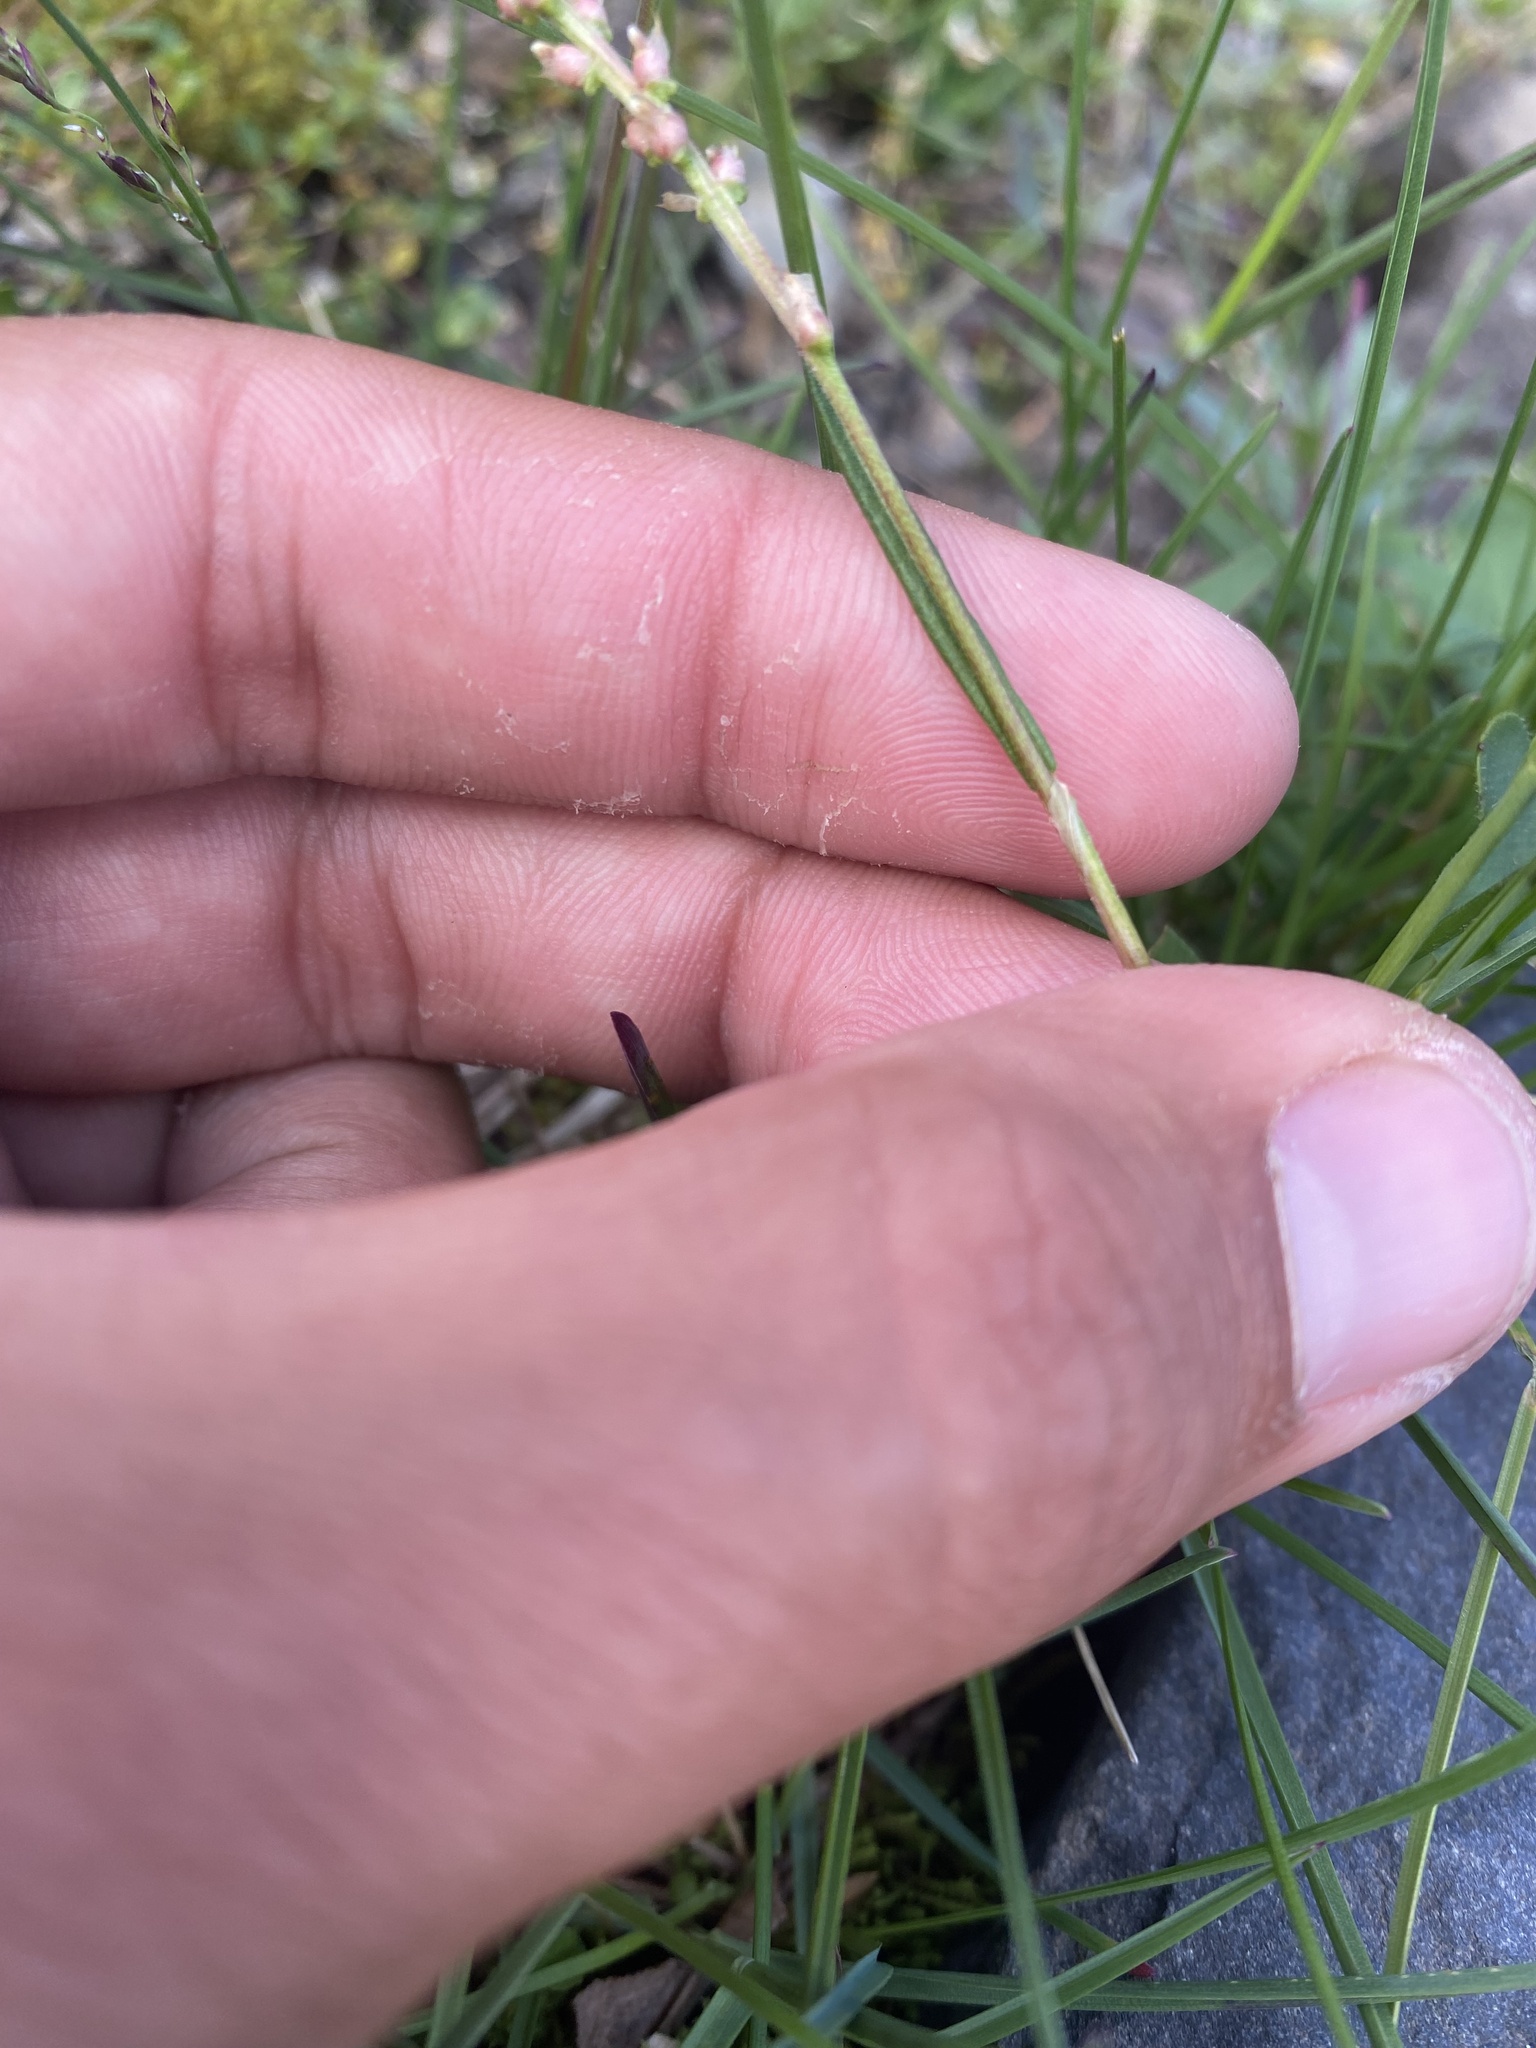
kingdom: Plantae
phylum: Tracheophyta
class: Magnoliopsida
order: Caryophyllales
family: Polygonaceae
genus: Bistorta
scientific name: Bistorta vivipara
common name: Alpine bistort
